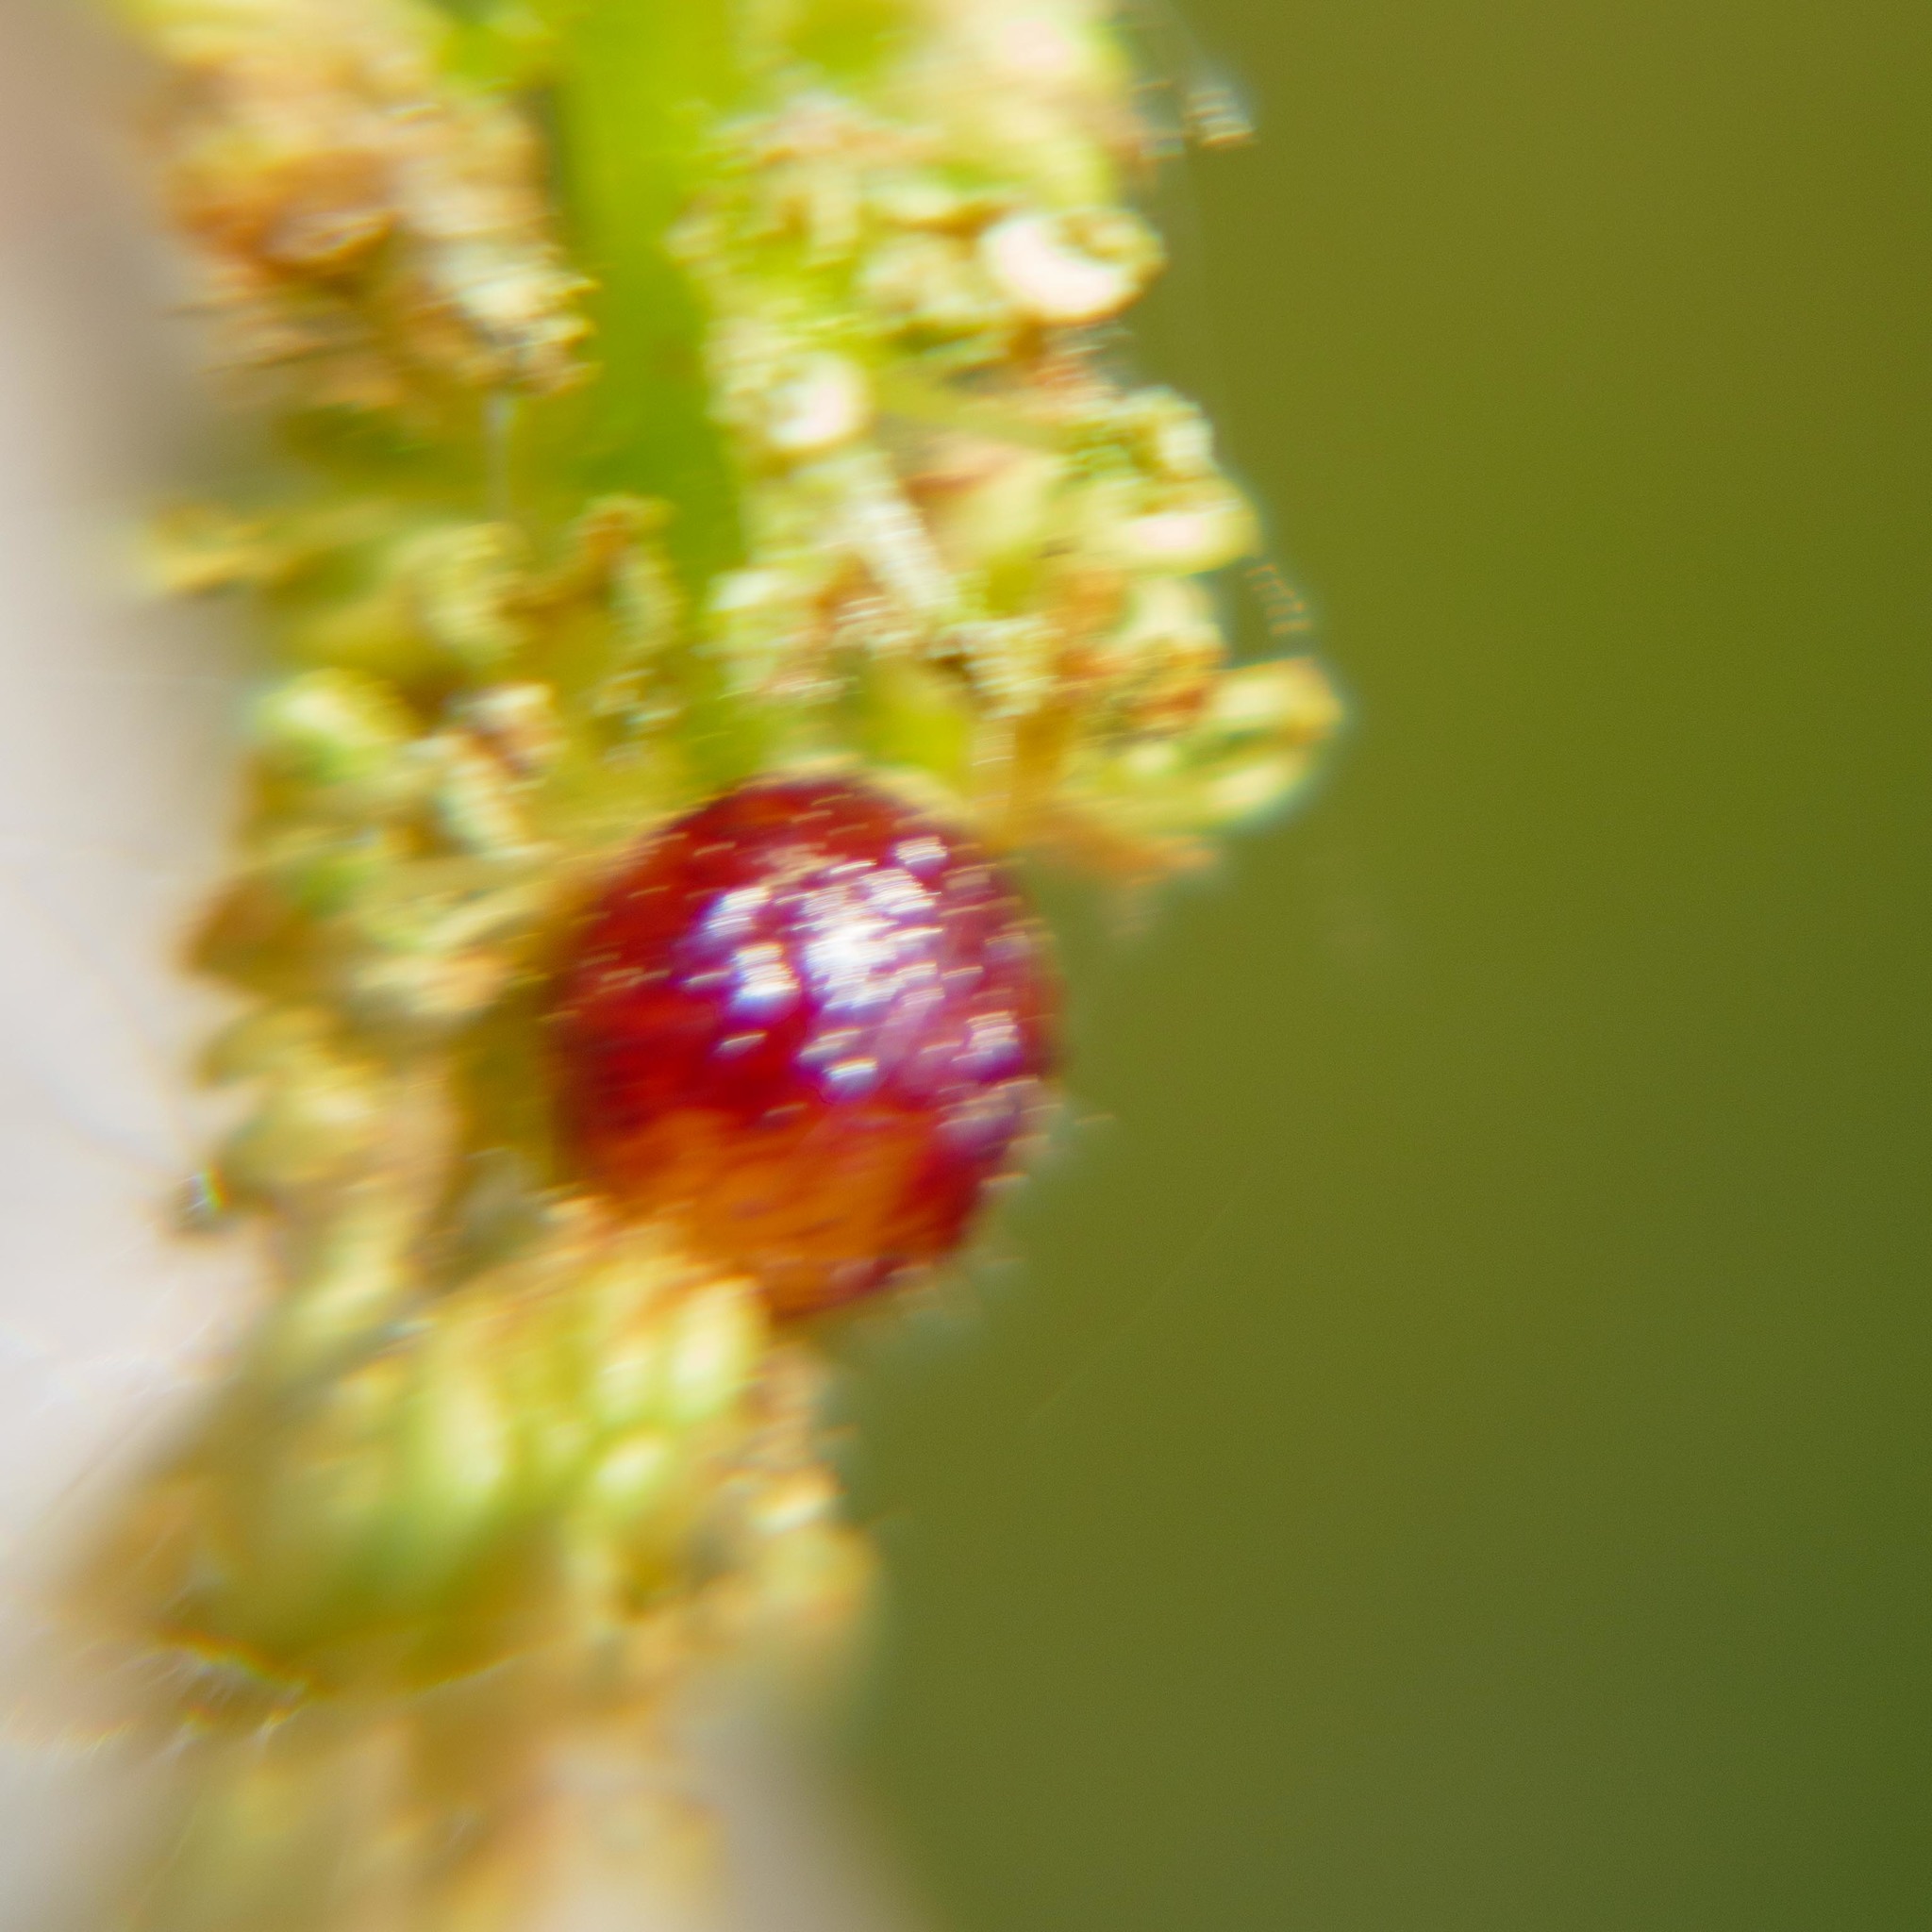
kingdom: Animalia
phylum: Arthropoda
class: Insecta
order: Hymenoptera
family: Cynipidae
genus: Neuroterus
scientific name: Neuroterus quercusbaccarum
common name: Common spangle gall
